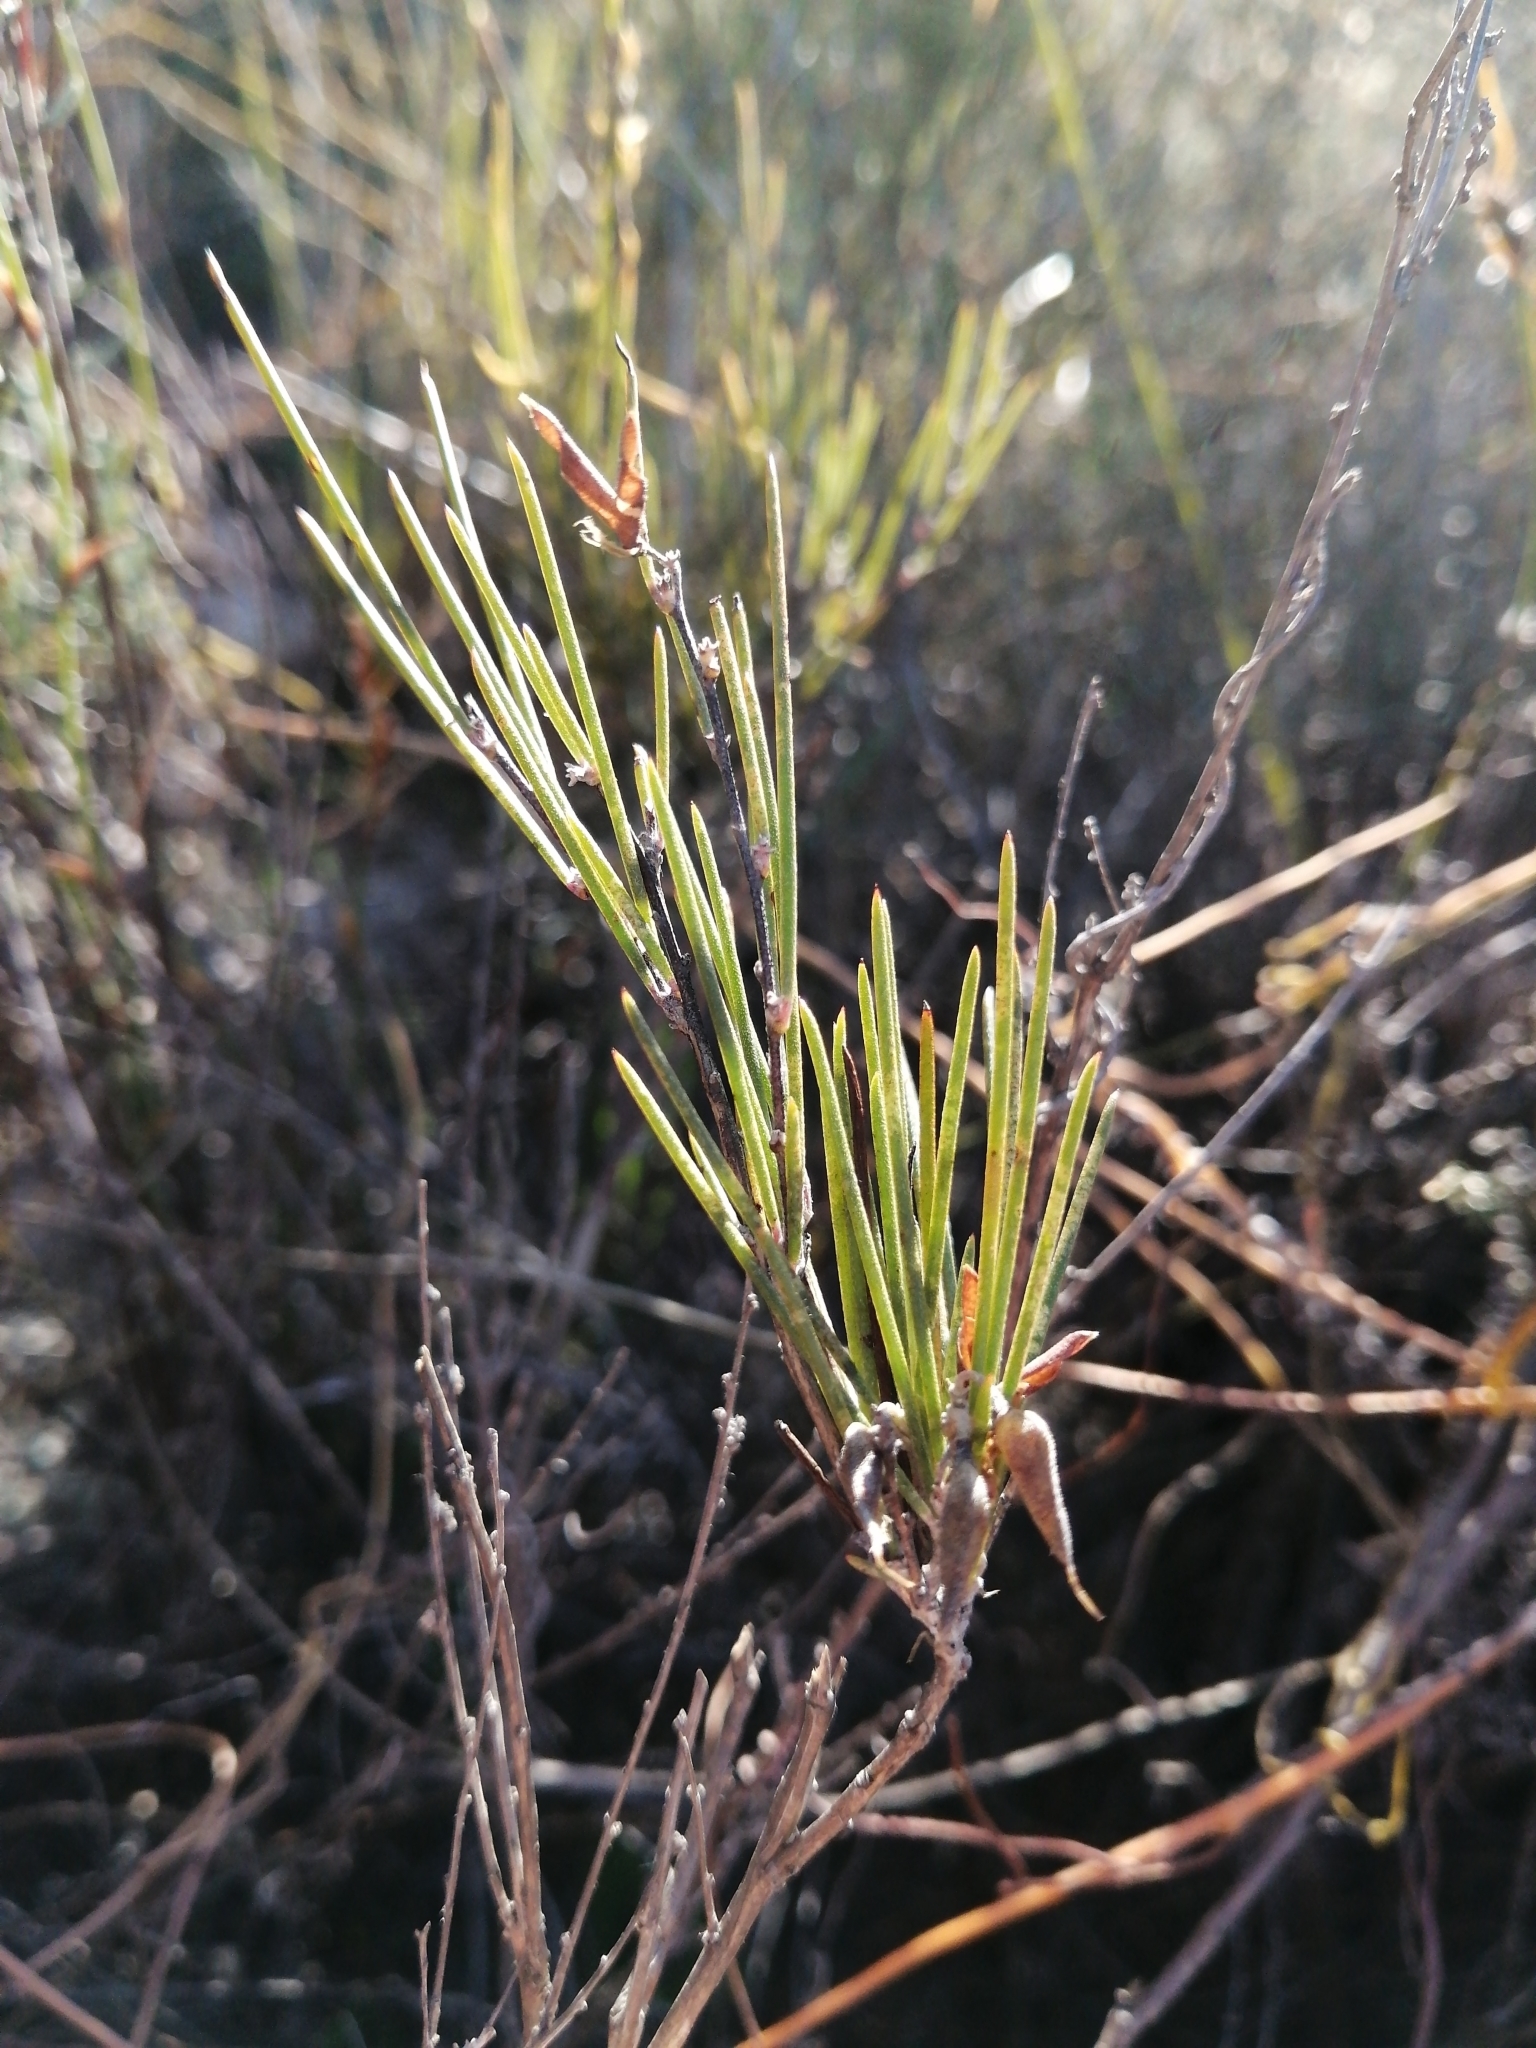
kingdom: Plantae
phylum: Tracheophyta
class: Magnoliopsida
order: Fabales
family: Fabaceae
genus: Aspalathus
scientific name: Aspalathus linearis
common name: Rooibos-tea
